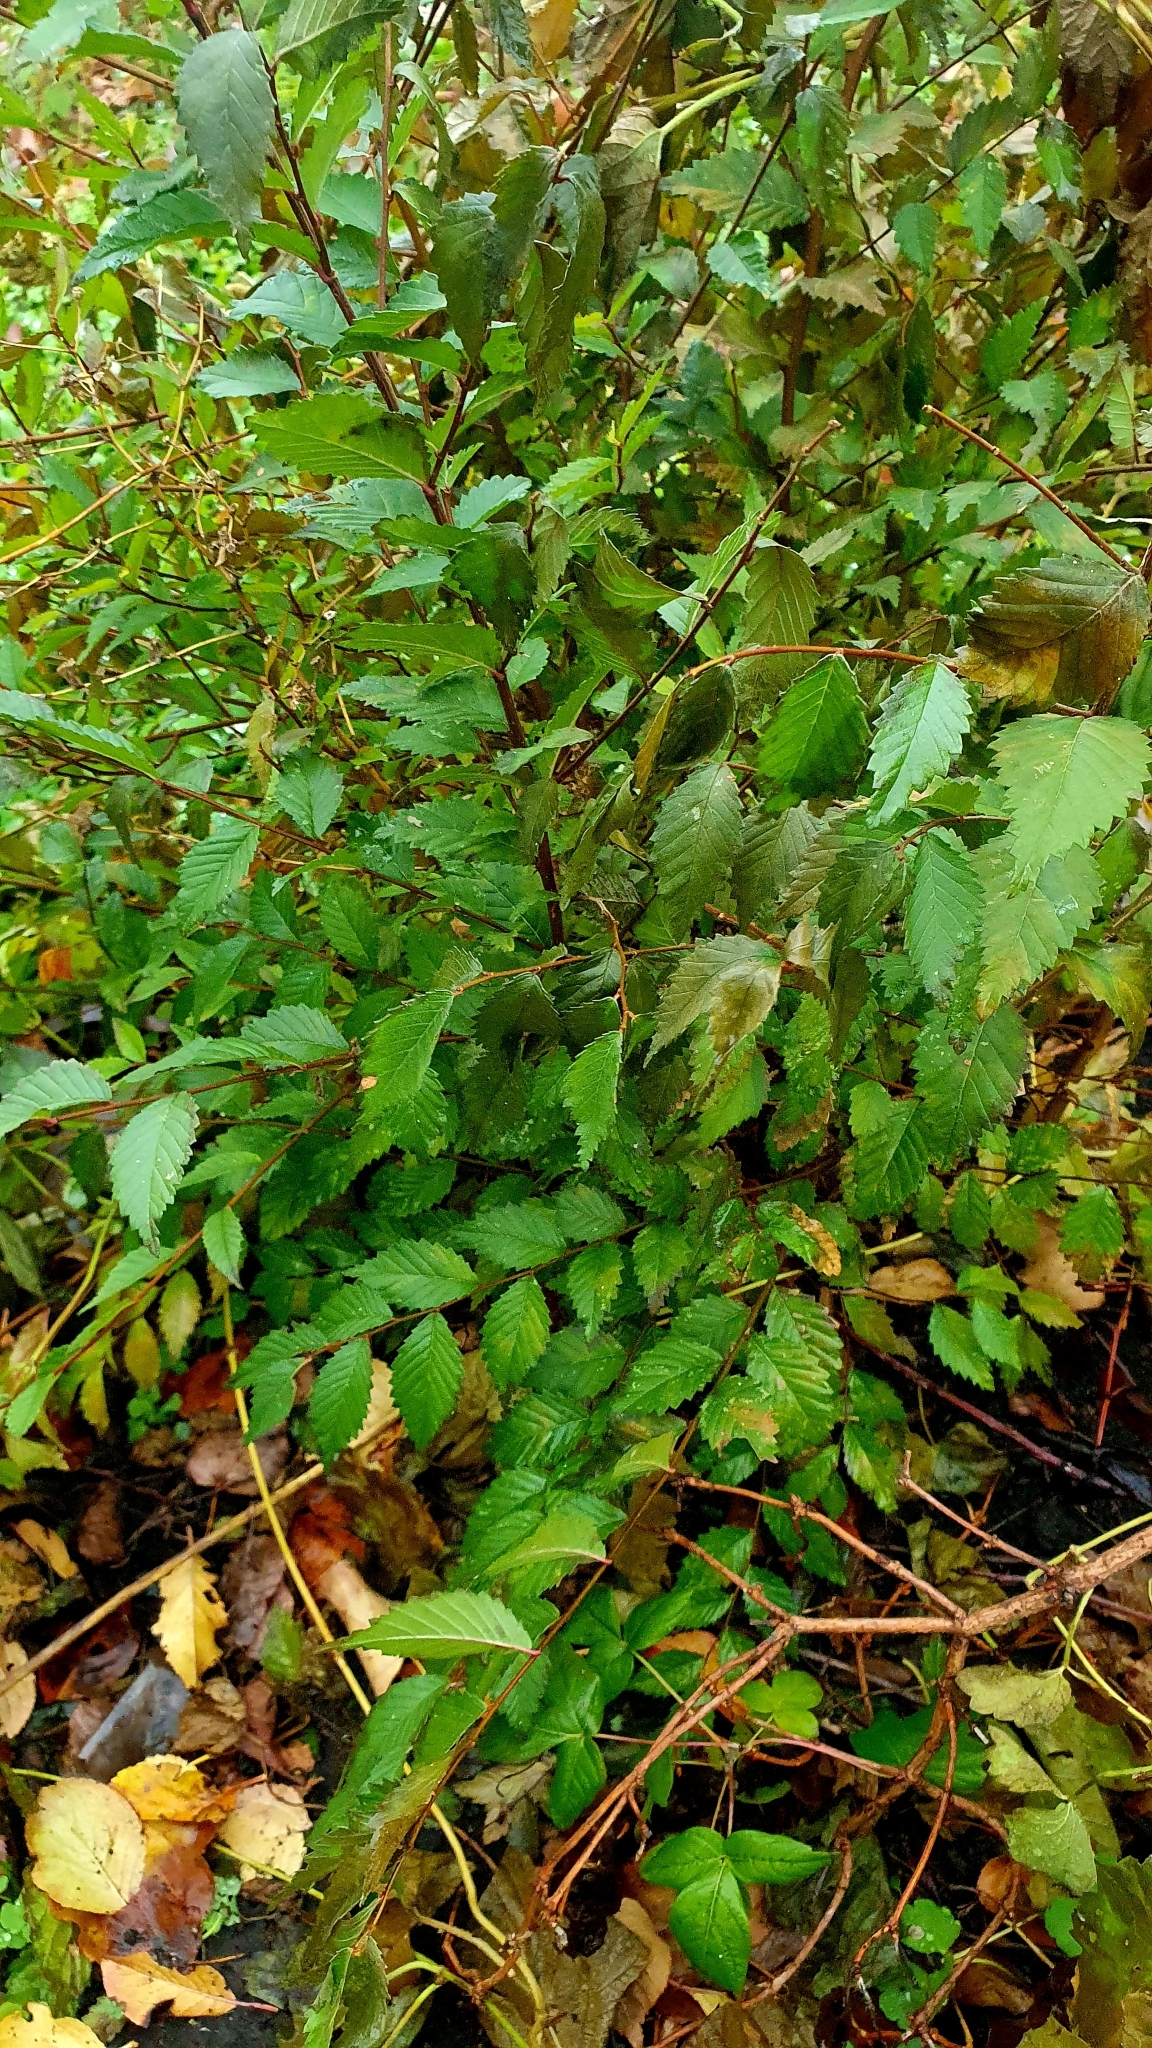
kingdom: Plantae
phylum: Tracheophyta
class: Magnoliopsida
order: Rosales
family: Ulmaceae
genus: Ulmus
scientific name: Ulmus pumila
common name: Siberian elm
